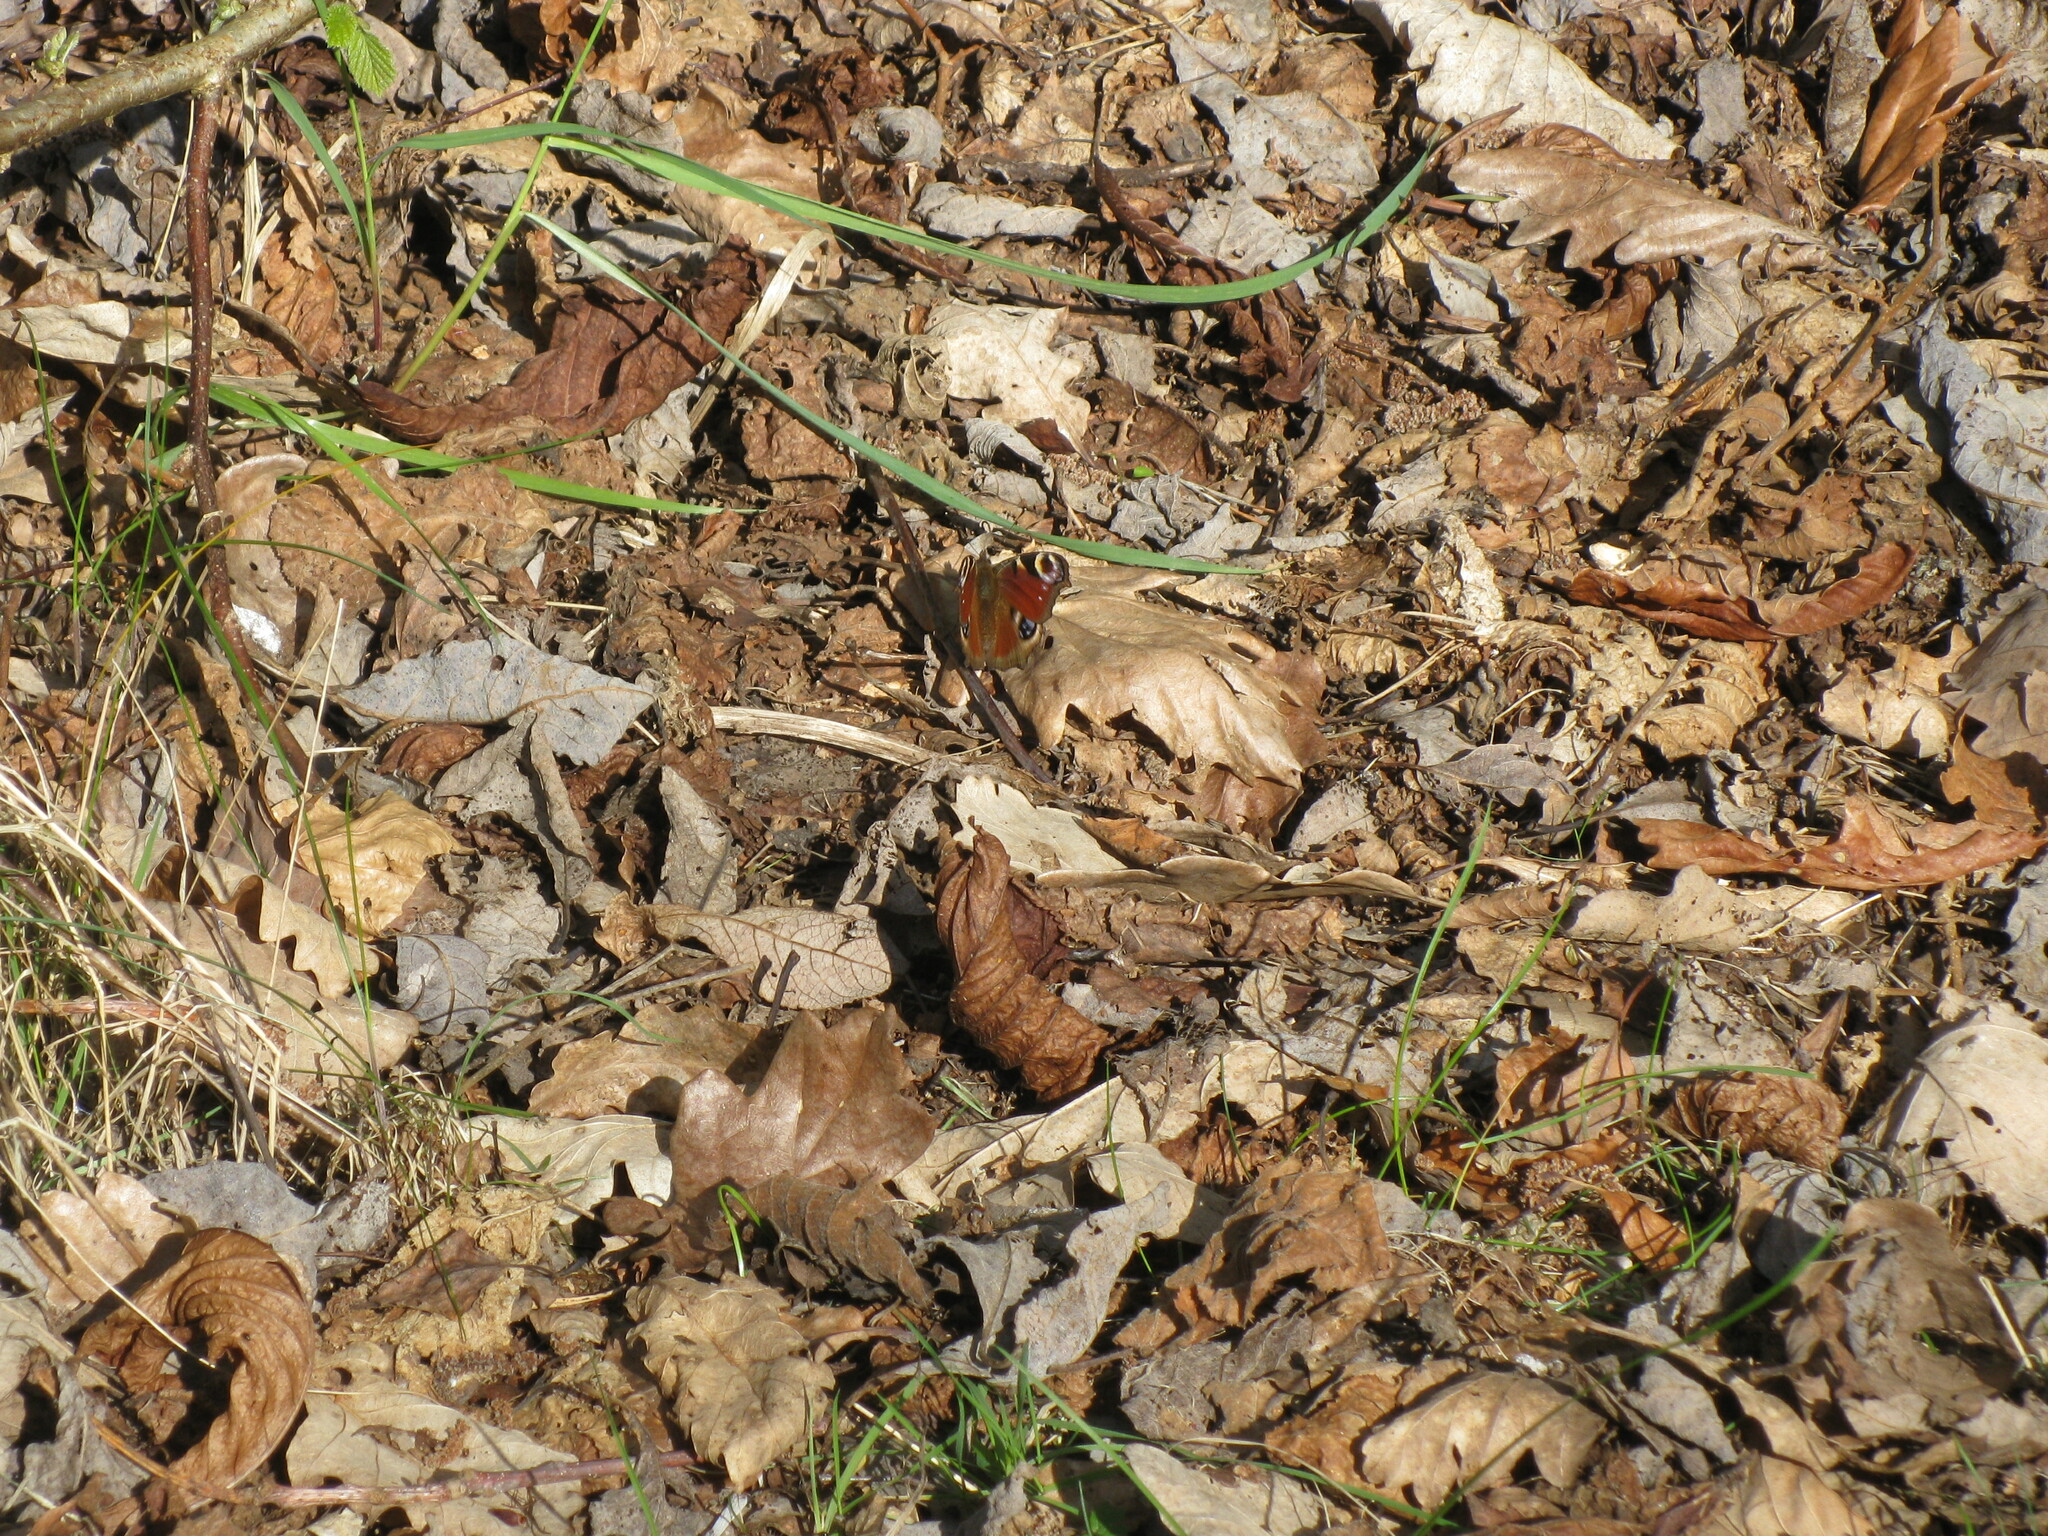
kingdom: Animalia
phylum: Arthropoda
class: Insecta
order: Lepidoptera
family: Nymphalidae
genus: Aglais
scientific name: Aglais io
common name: Peacock
